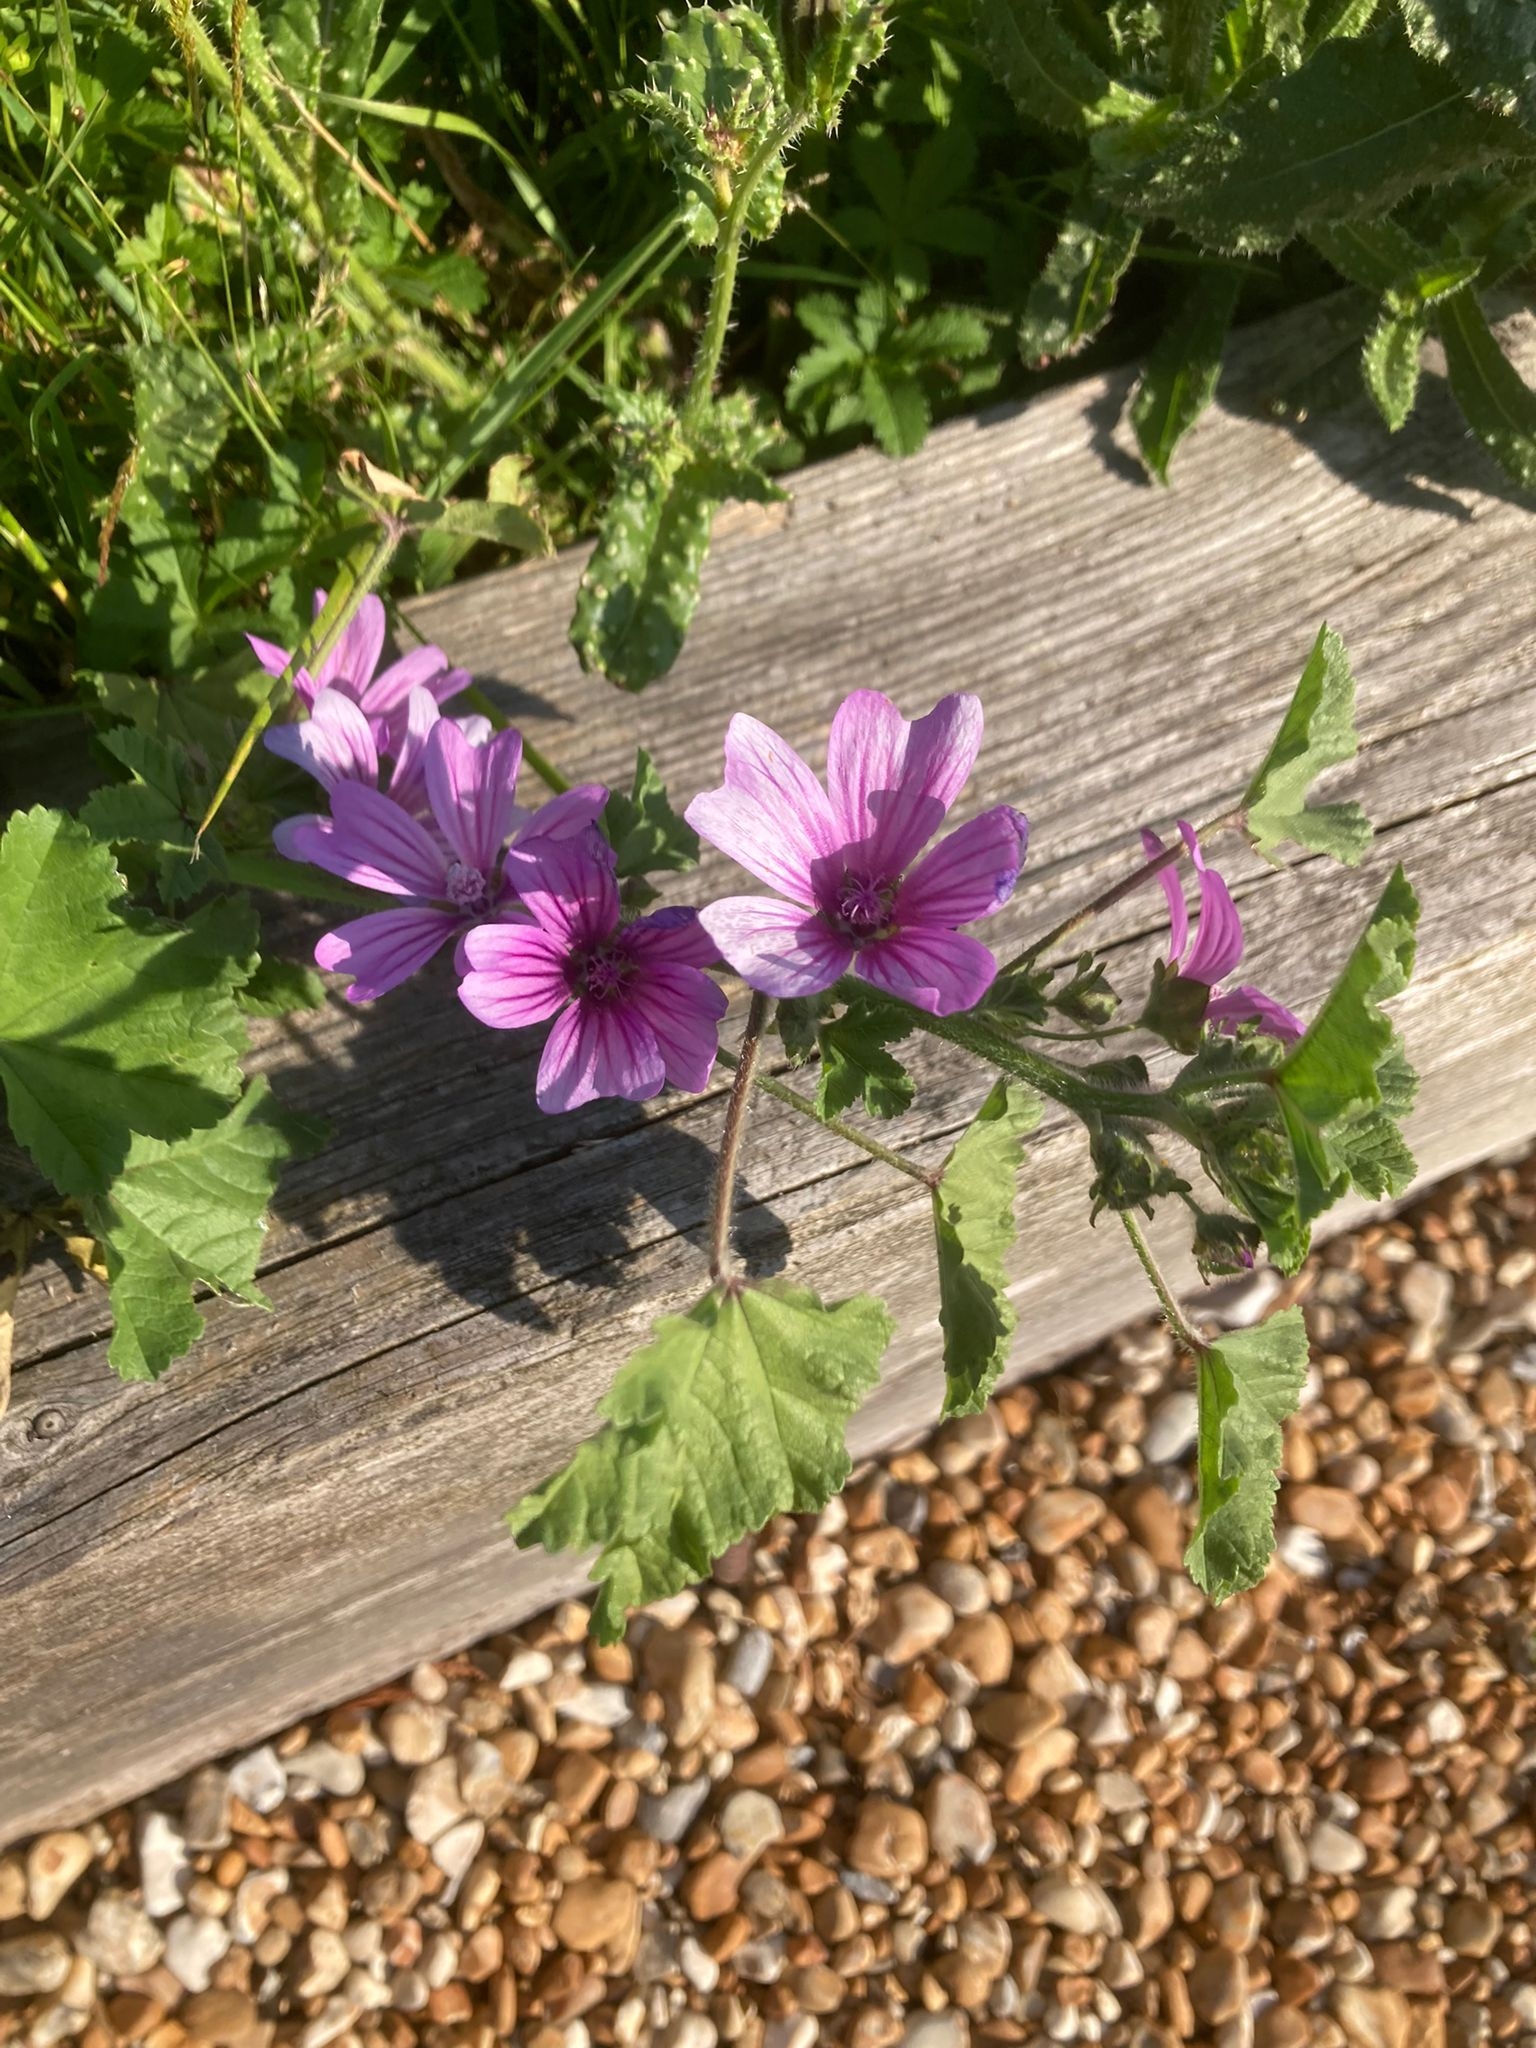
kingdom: Plantae
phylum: Tracheophyta
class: Magnoliopsida
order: Malvales
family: Malvaceae
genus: Malva
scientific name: Malva sylvestris
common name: Common mallow
